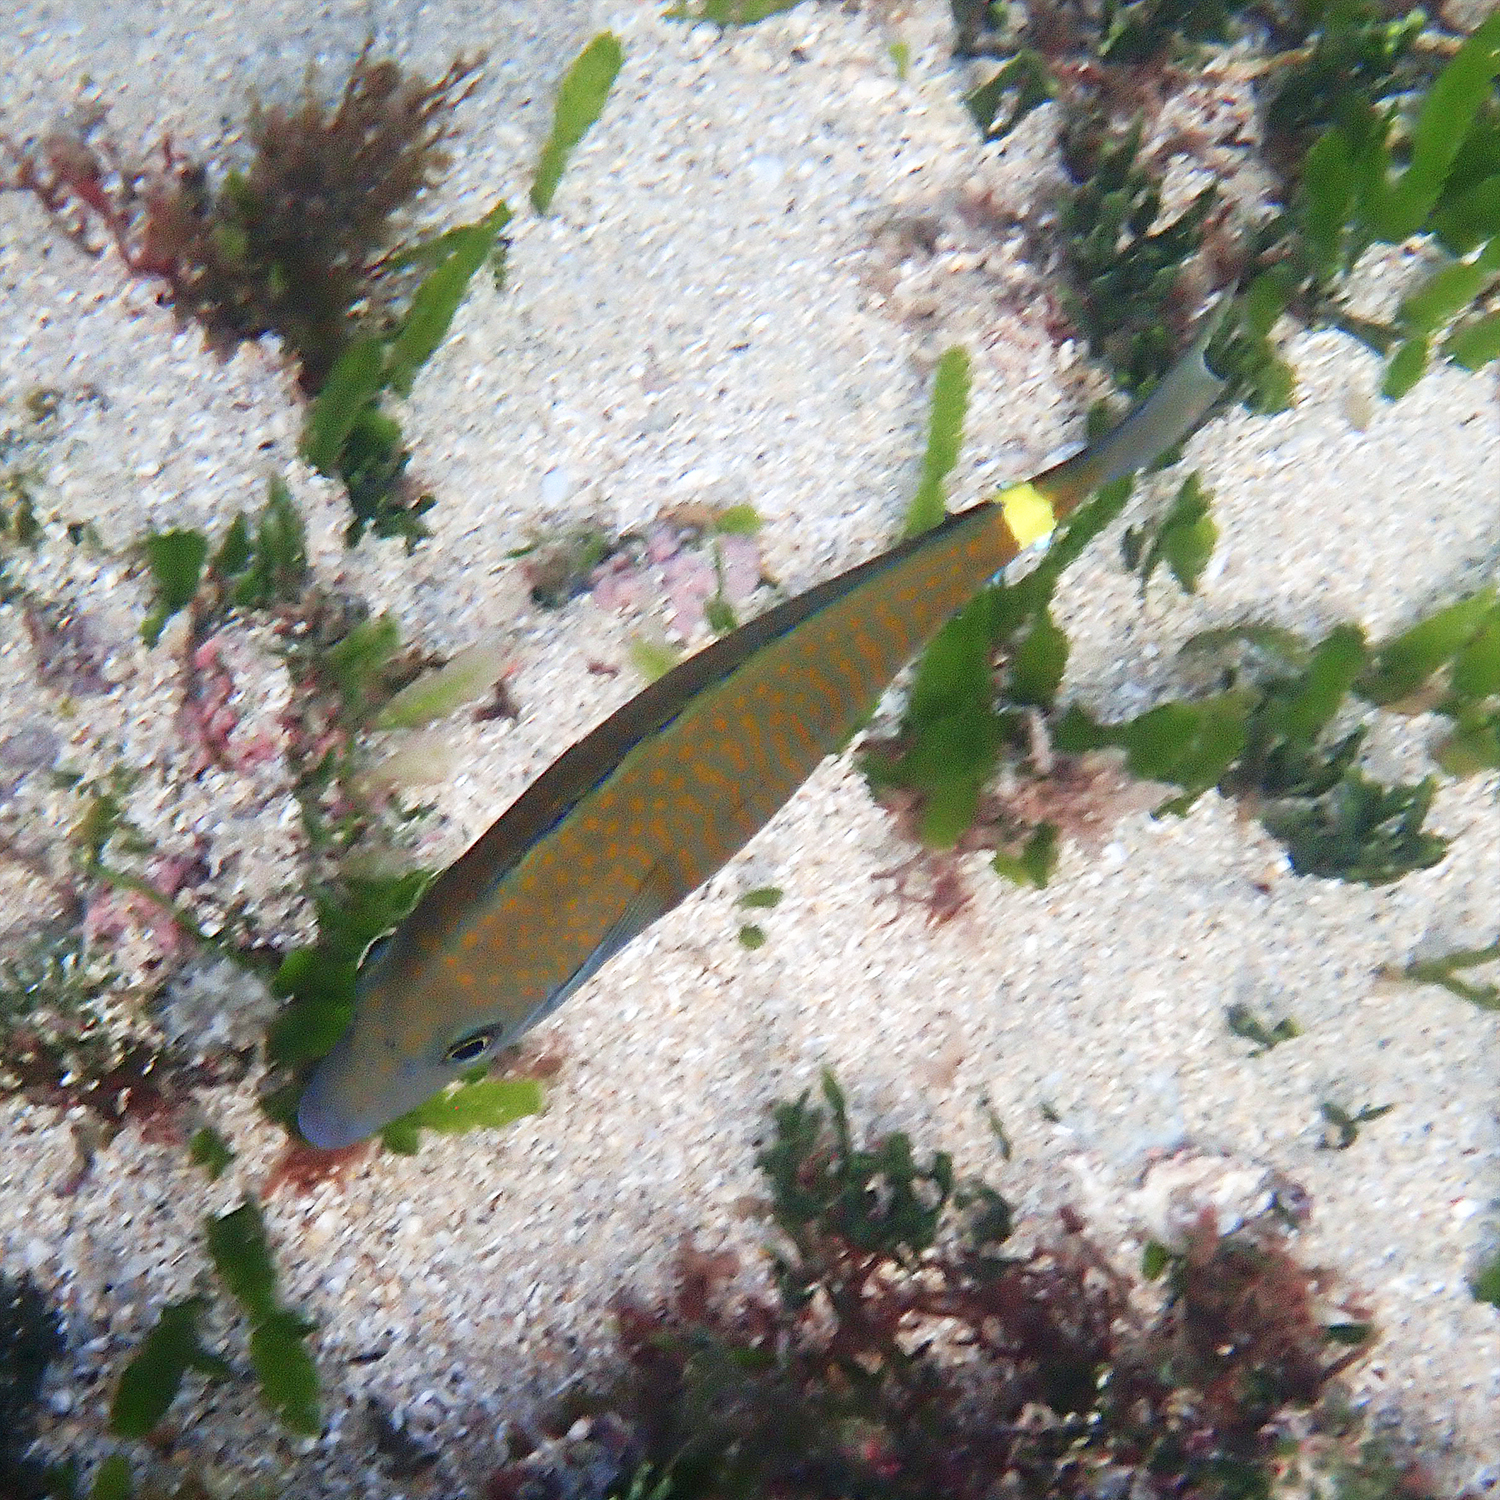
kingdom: Animalia
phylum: Chordata
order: Perciformes
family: Acanthuridae
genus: Prionurus
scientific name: Prionurus maculatus
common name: Yellowspotted sawtail
